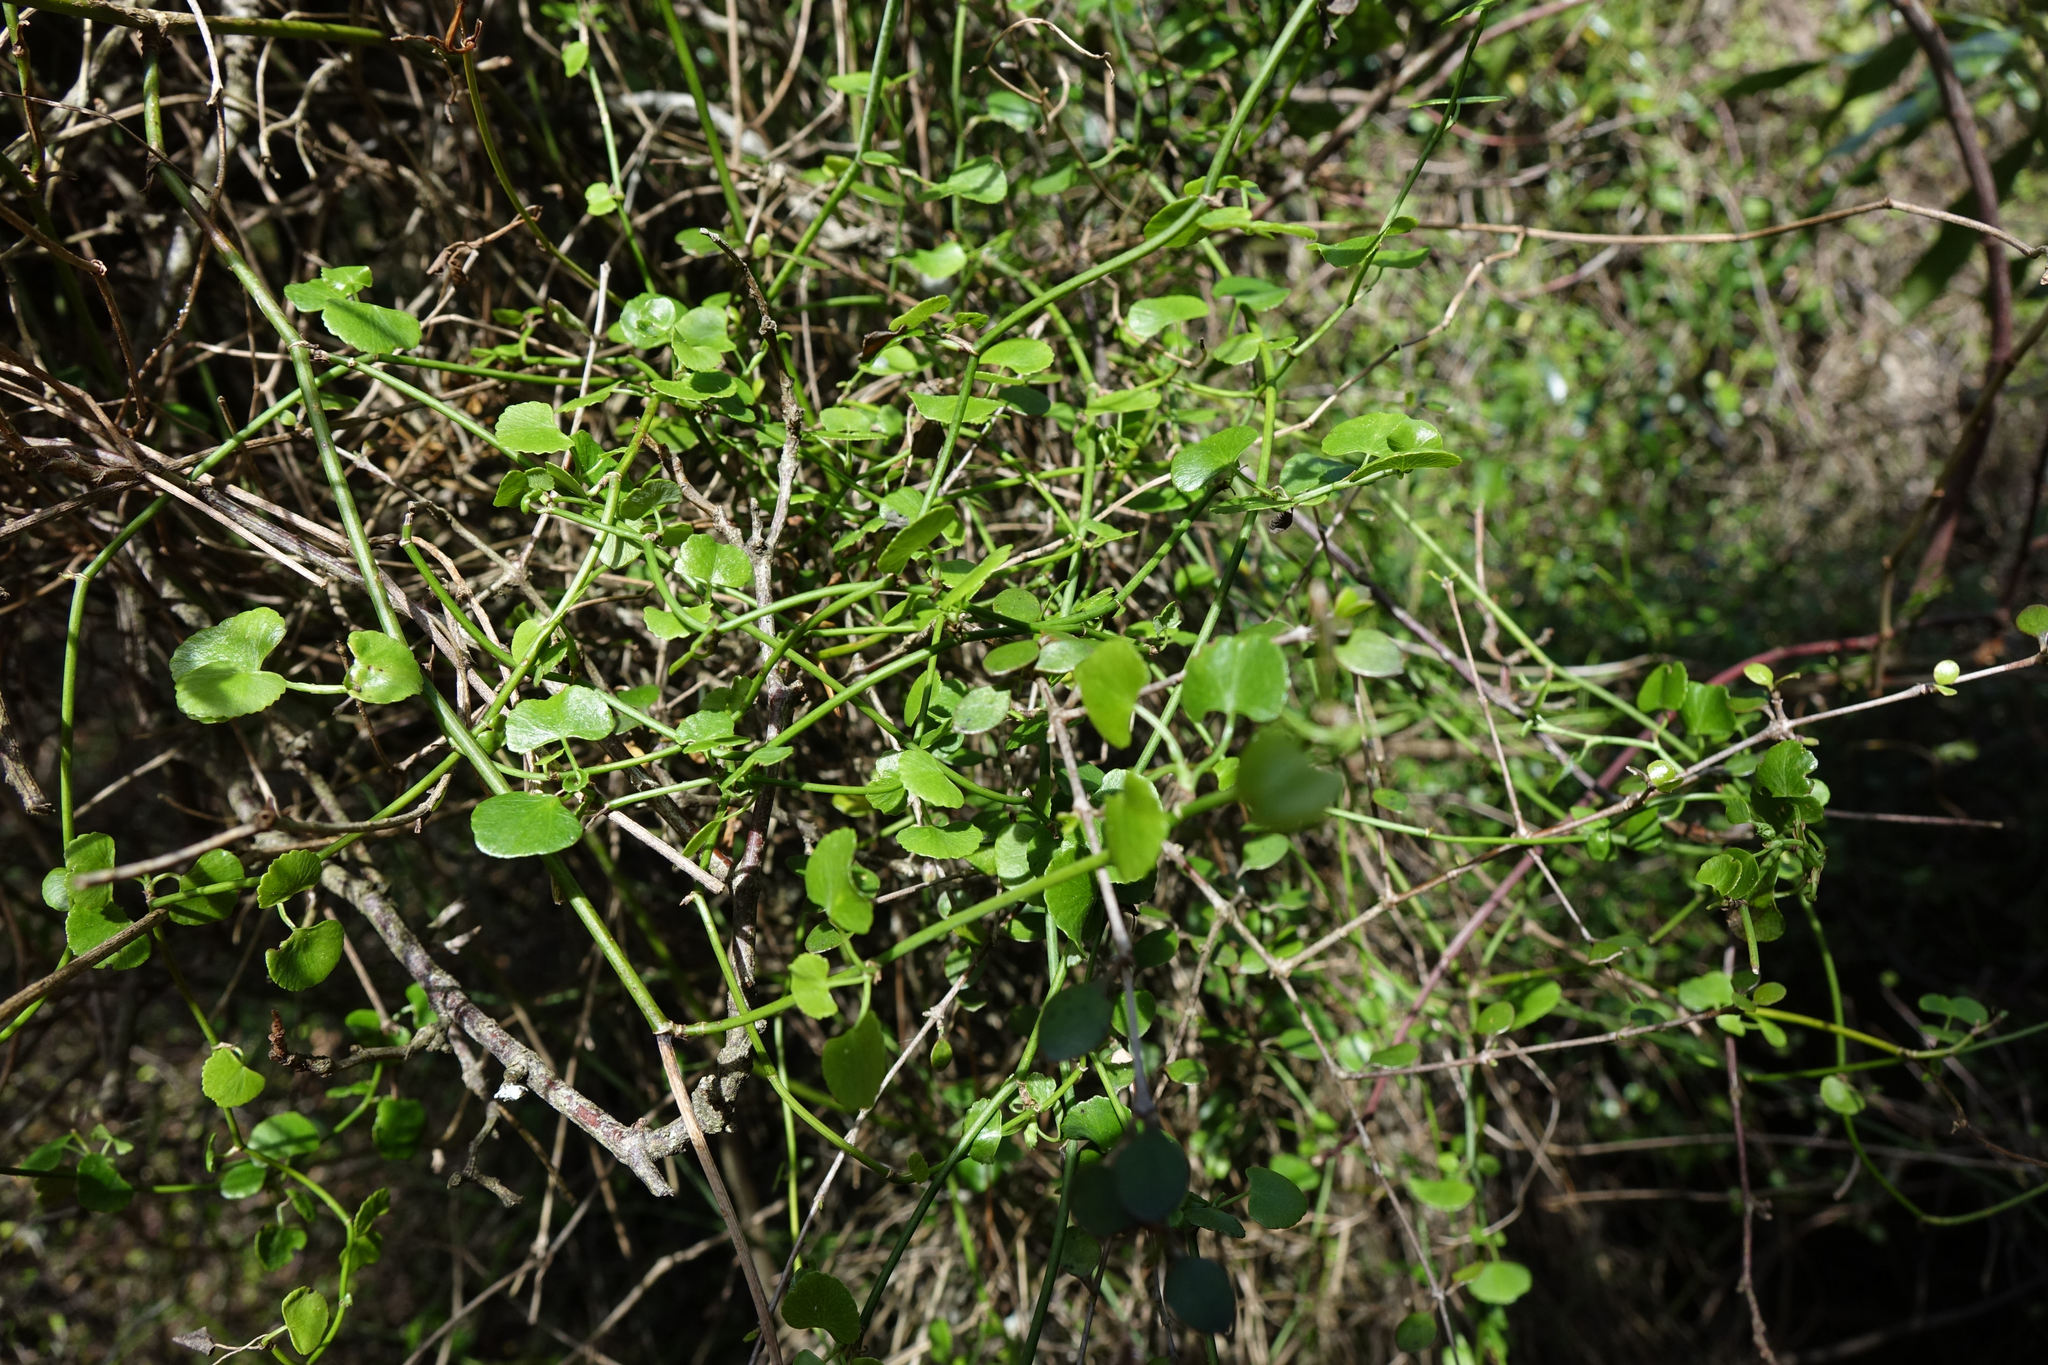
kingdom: Plantae
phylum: Tracheophyta
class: Magnoliopsida
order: Apiales
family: Apiaceae
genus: Scandia
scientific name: Scandia geniculata
